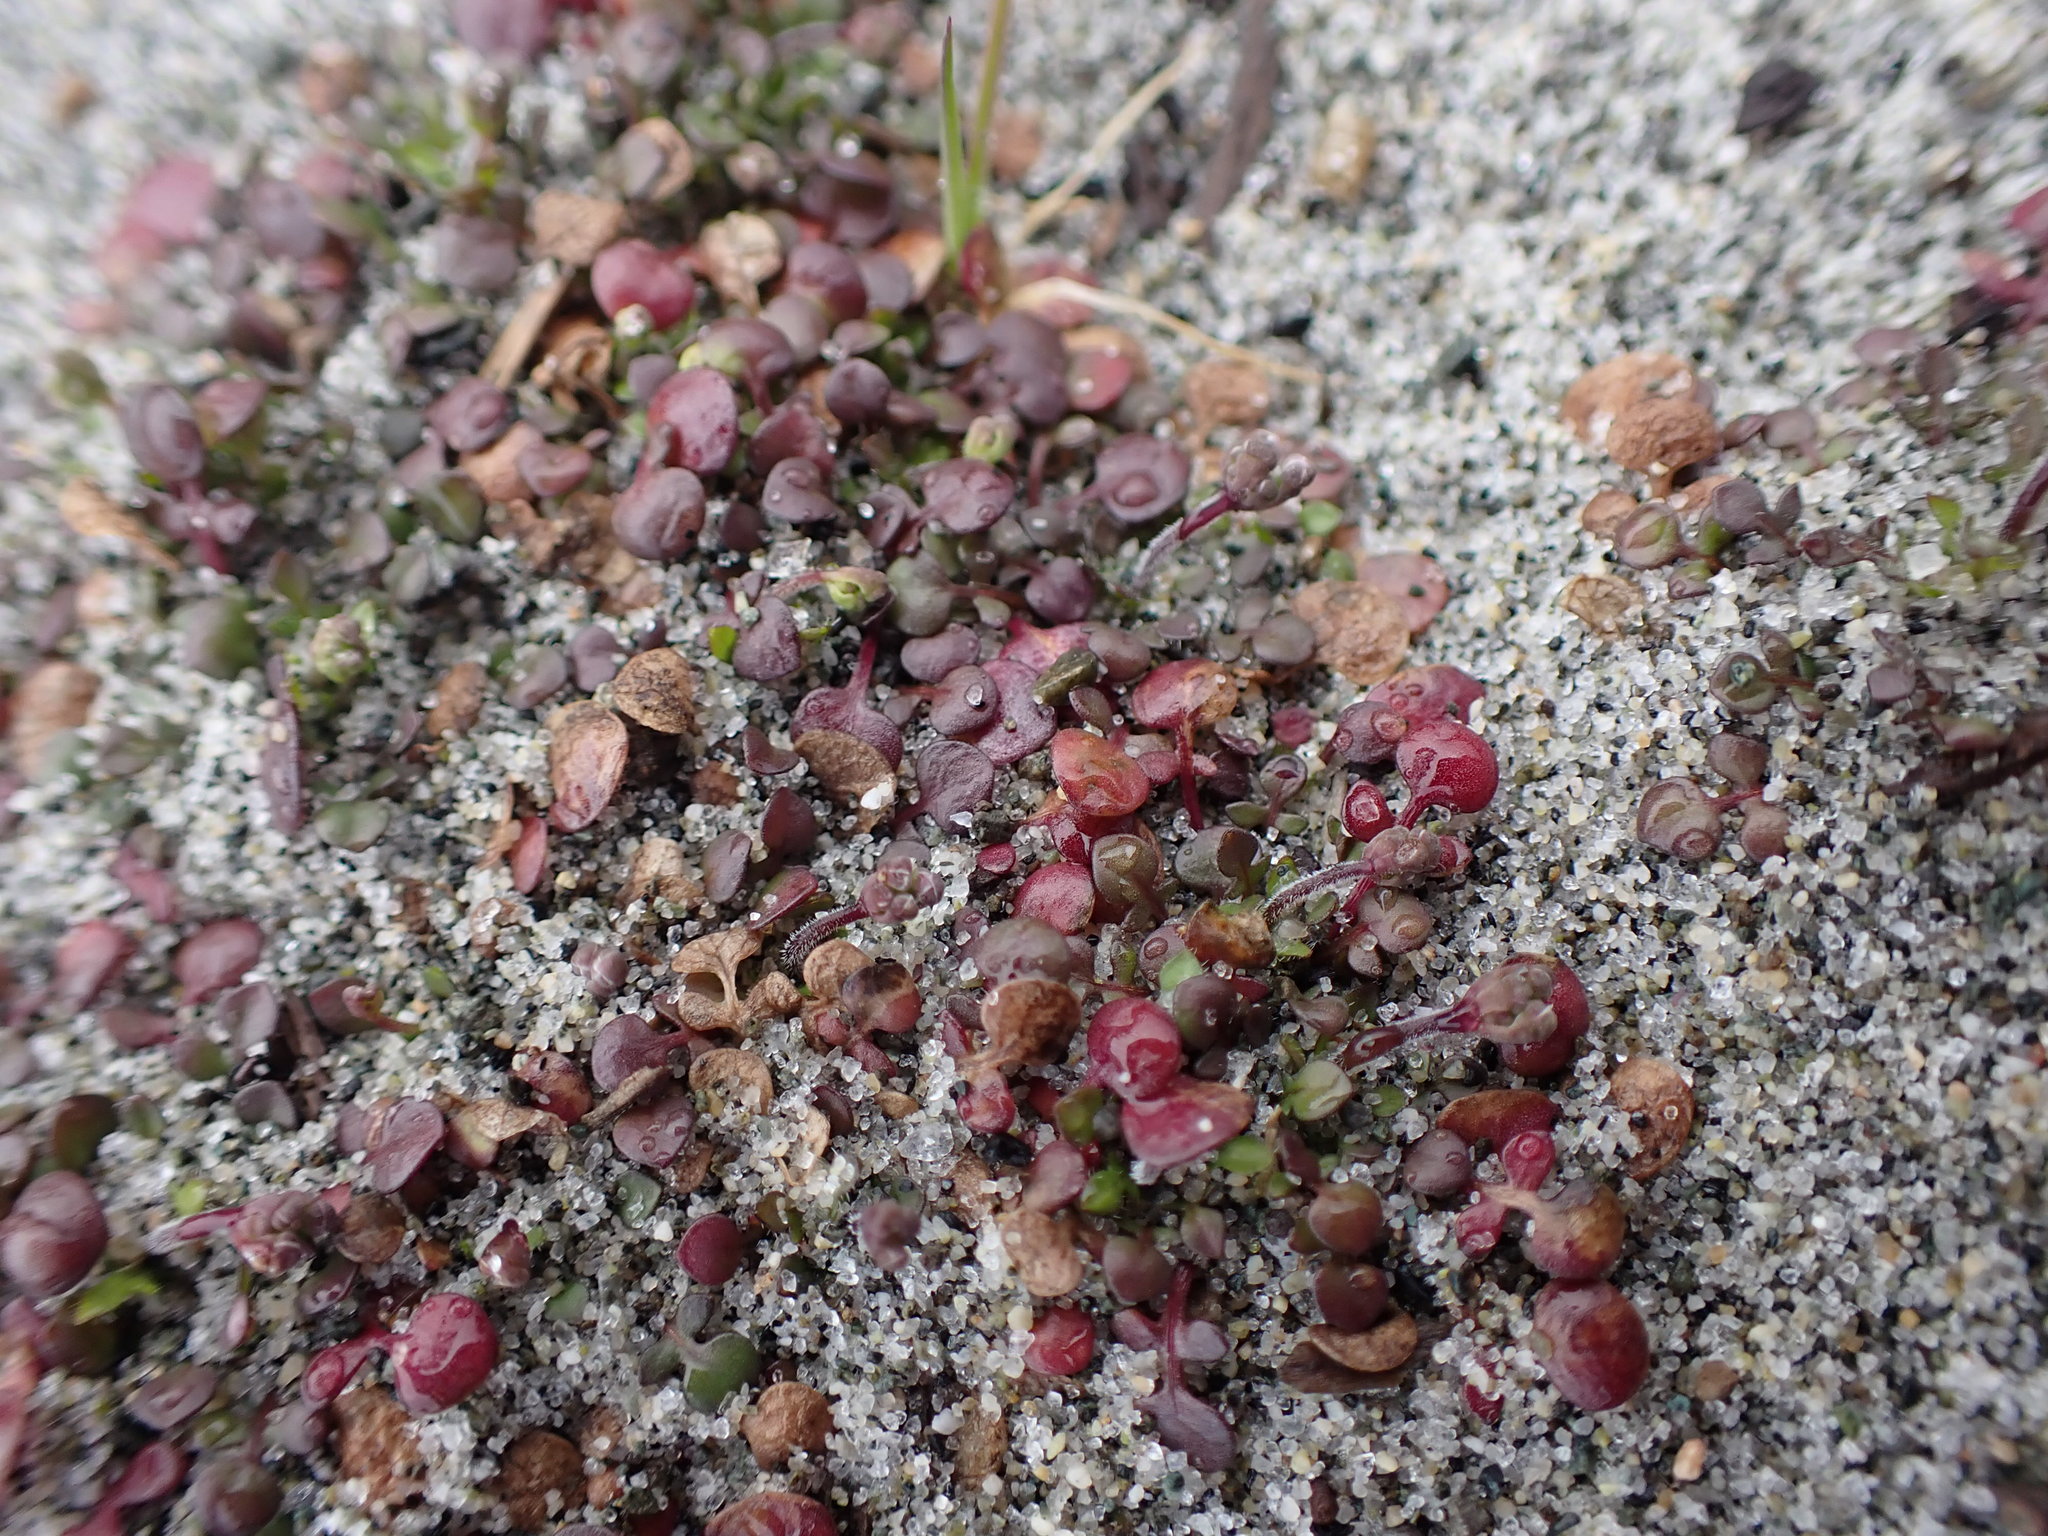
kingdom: Plantae
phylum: Tracheophyta
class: Magnoliopsida
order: Brassicales
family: Brassicaceae
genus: Teesdalia
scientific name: Teesdalia nudicaulis
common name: Shepherd's cress
